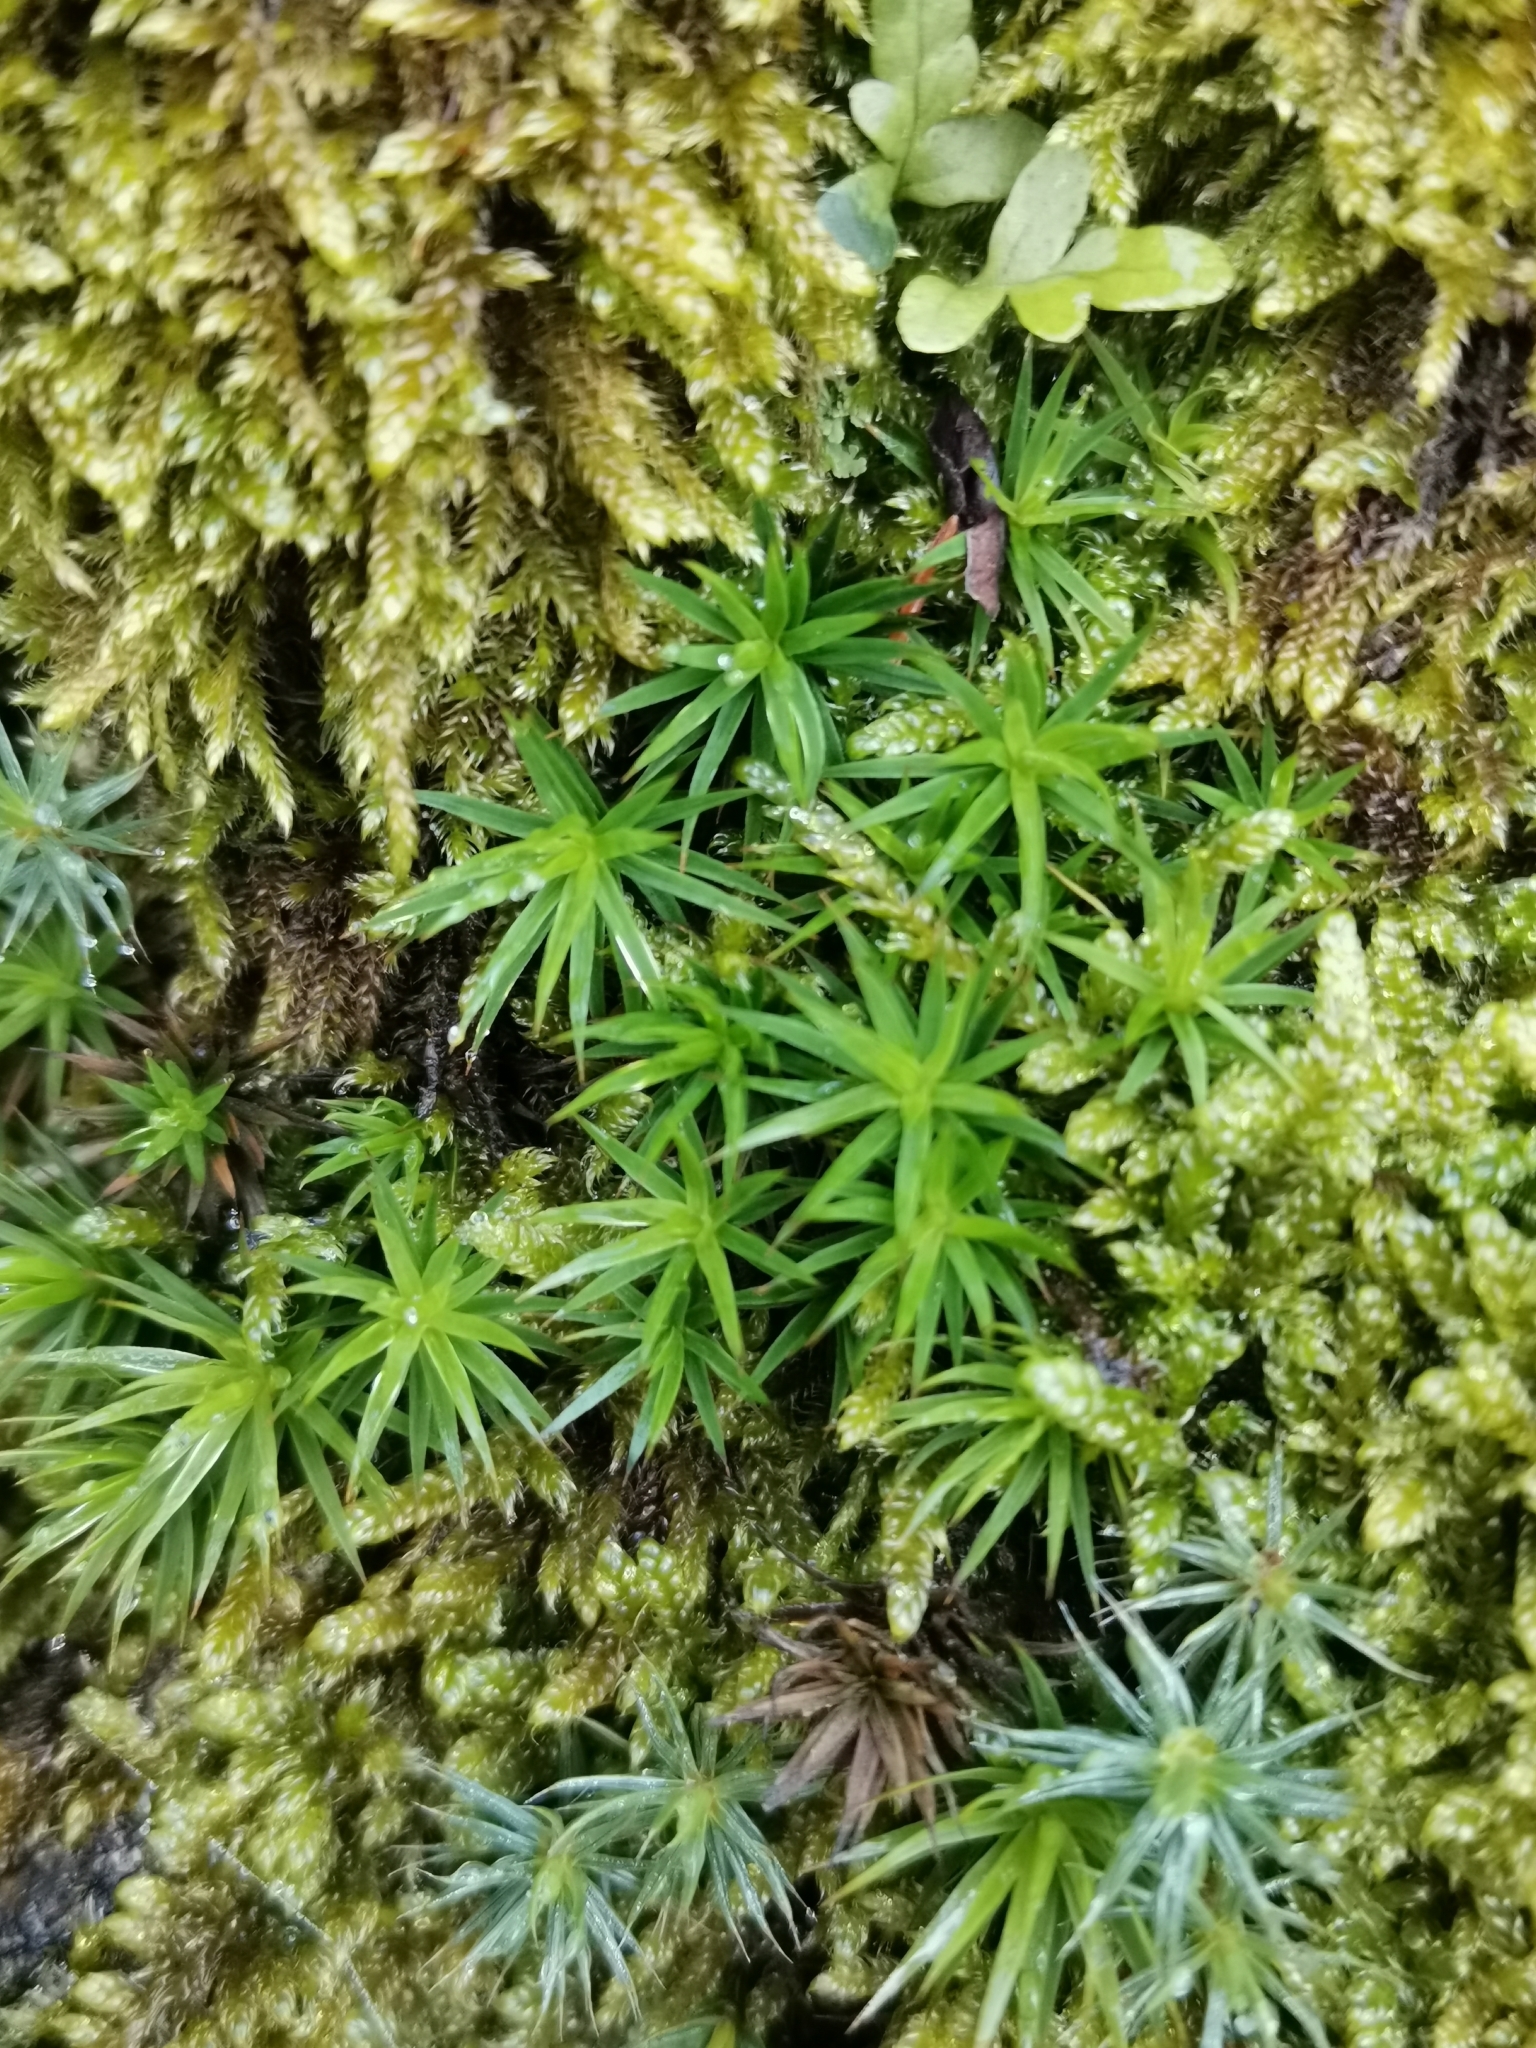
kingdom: Plantae
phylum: Bryophyta
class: Polytrichopsida
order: Polytrichales
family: Polytrichaceae
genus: Polytrichum
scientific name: Polytrichum formosum
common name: Bank haircap moss
